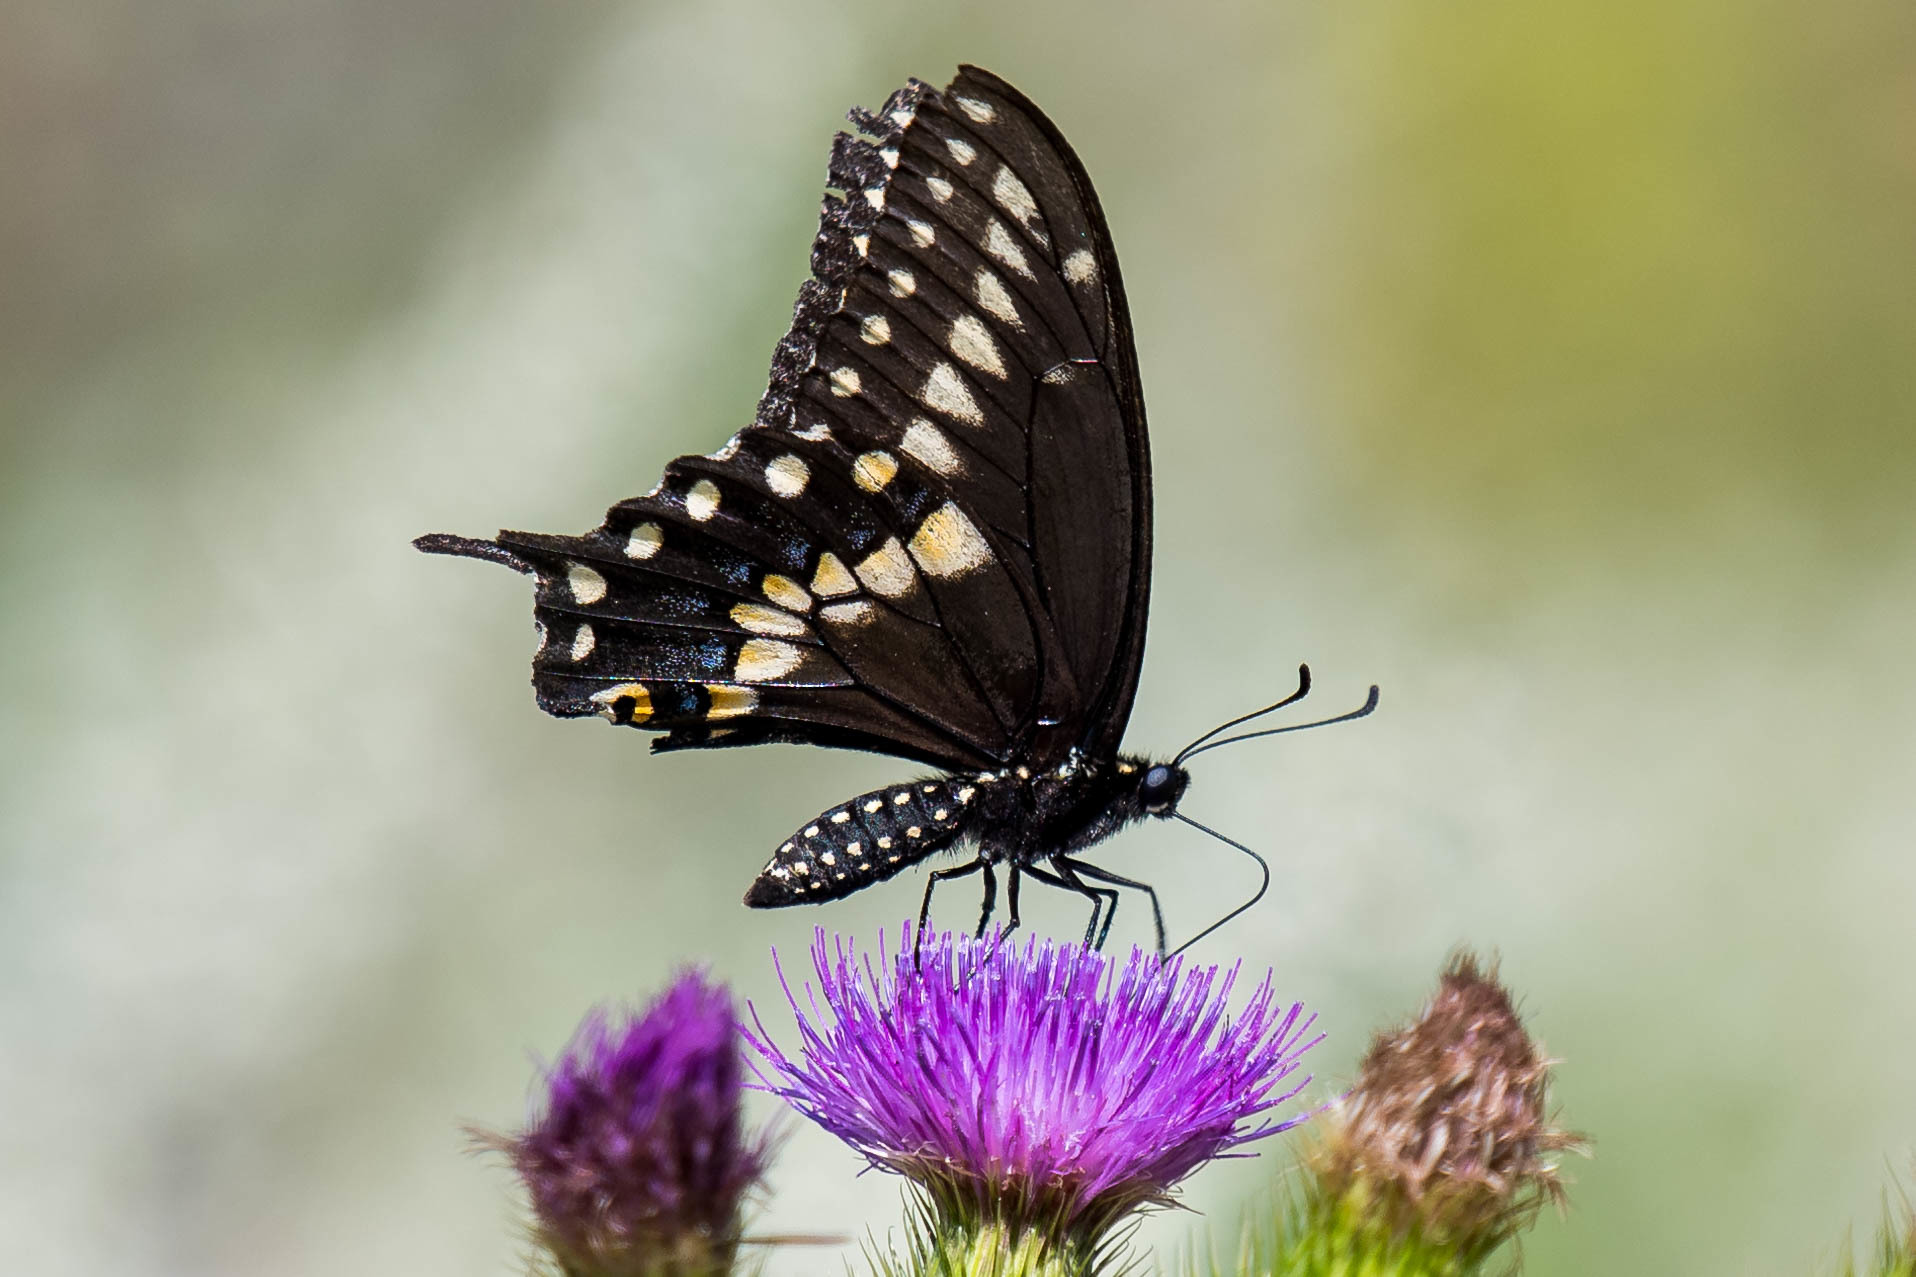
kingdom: Animalia
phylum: Arthropoda
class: Insecta
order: Lepidoptera
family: Papilionidae
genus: Papilio
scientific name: Papilio polyxenes
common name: Black swallowtail
